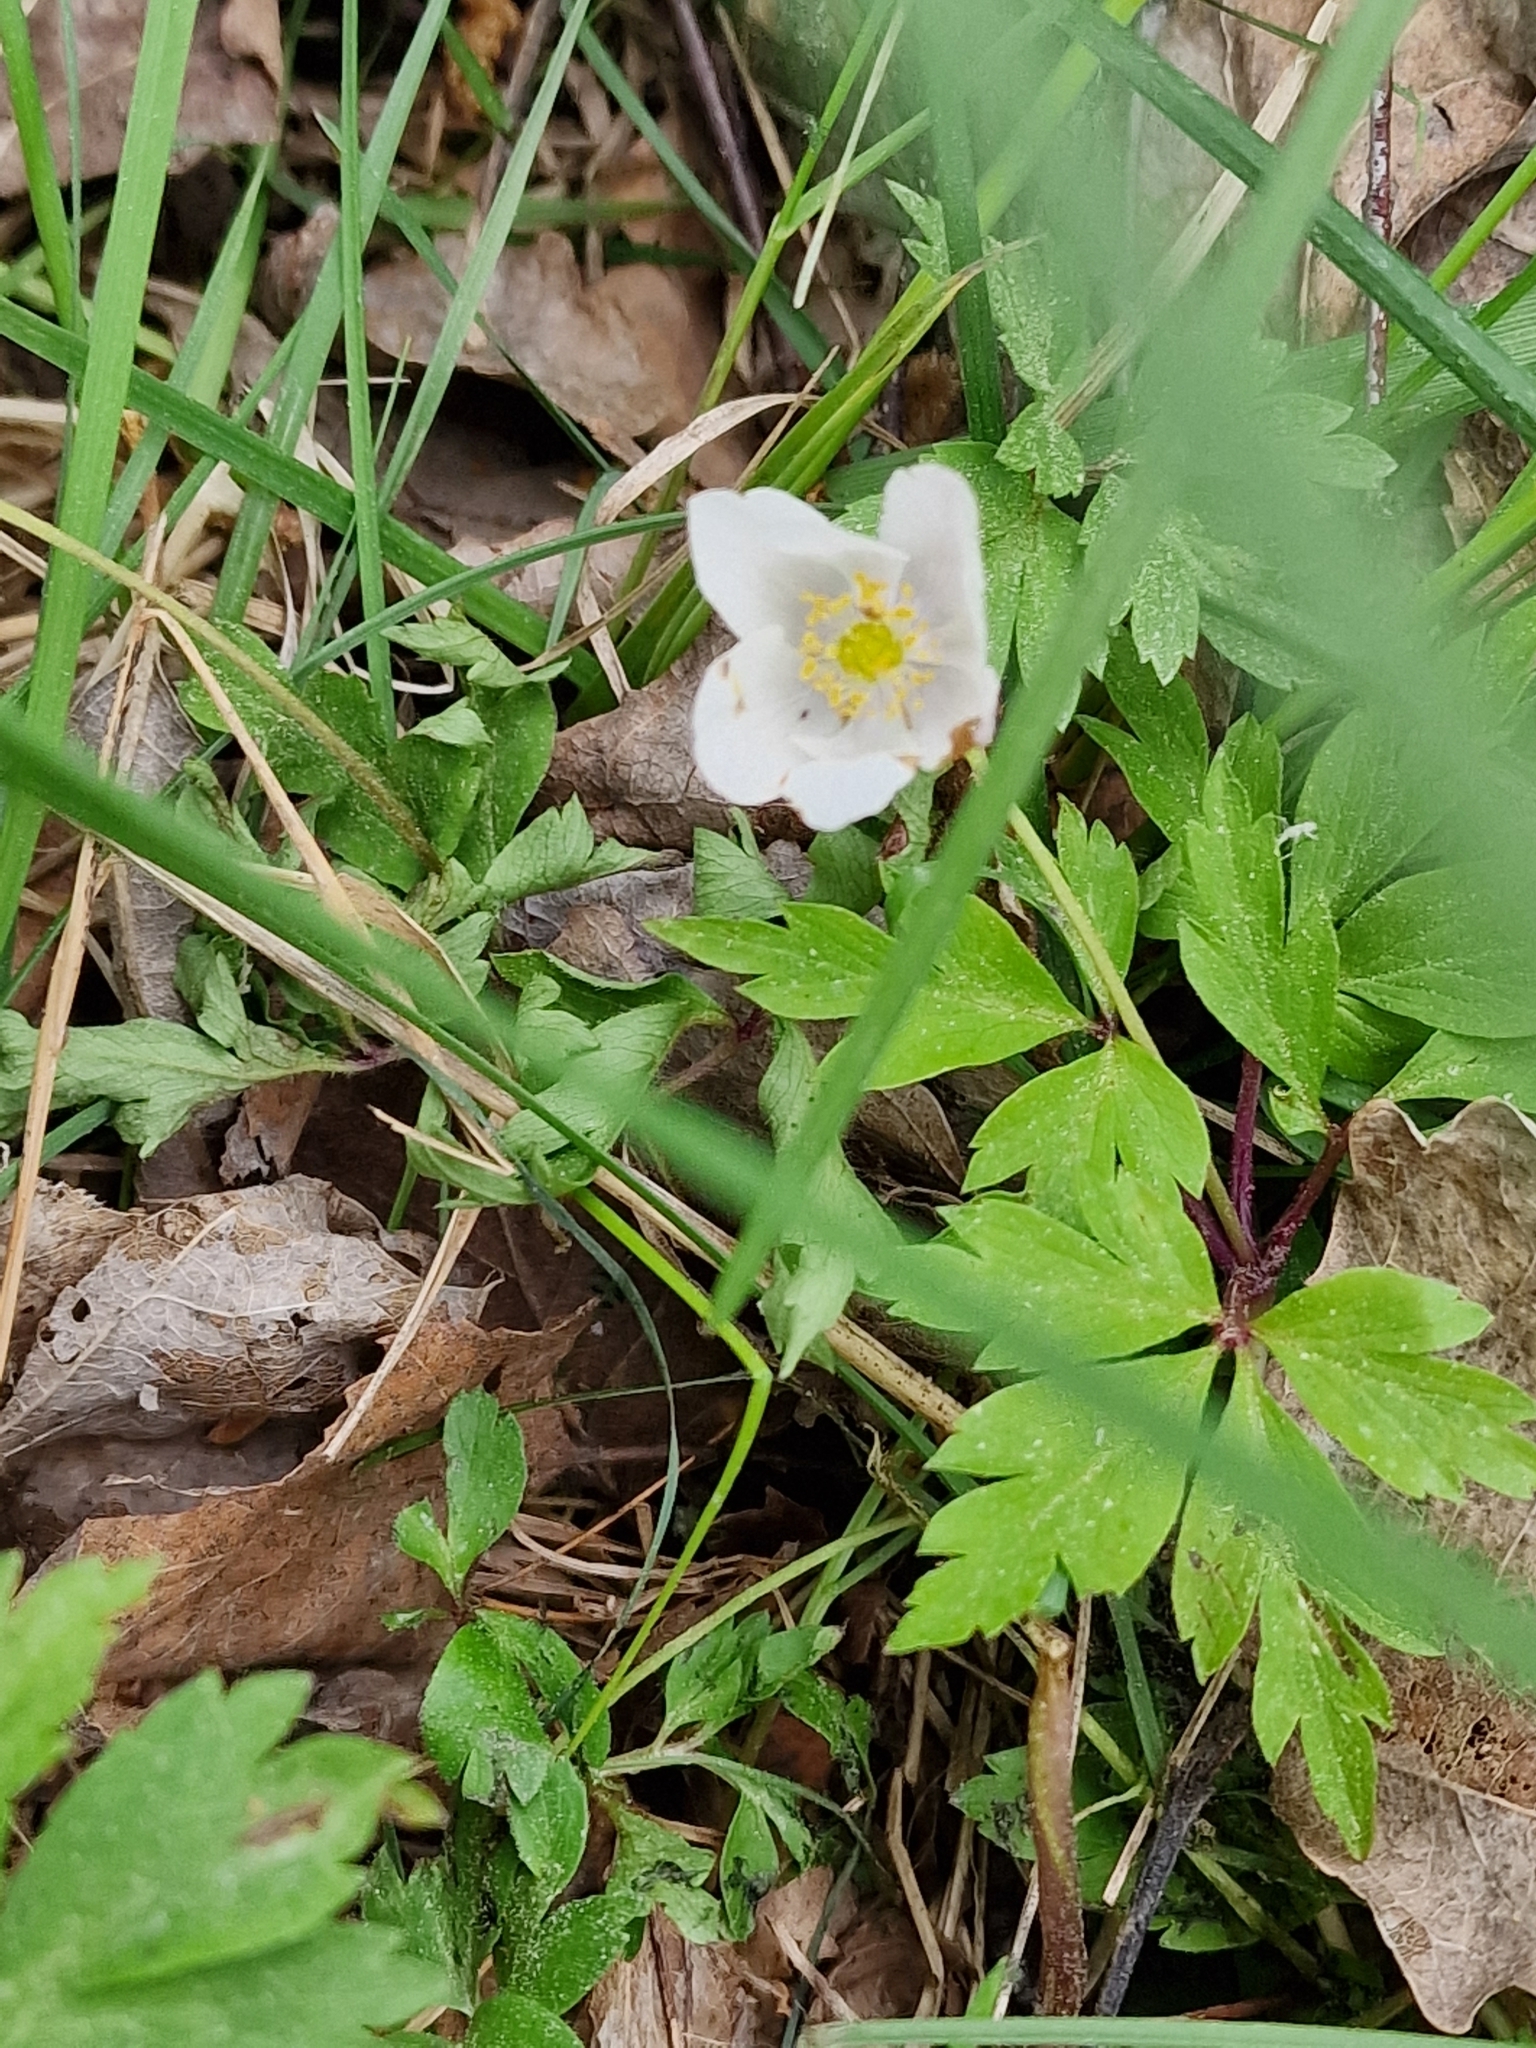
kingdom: Plantae
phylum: Tracheophyta
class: Magnoliopsida
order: Ranunculales
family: Ranunculaceae
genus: Anemone
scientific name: Anemone nemorosa
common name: Wood anemone
